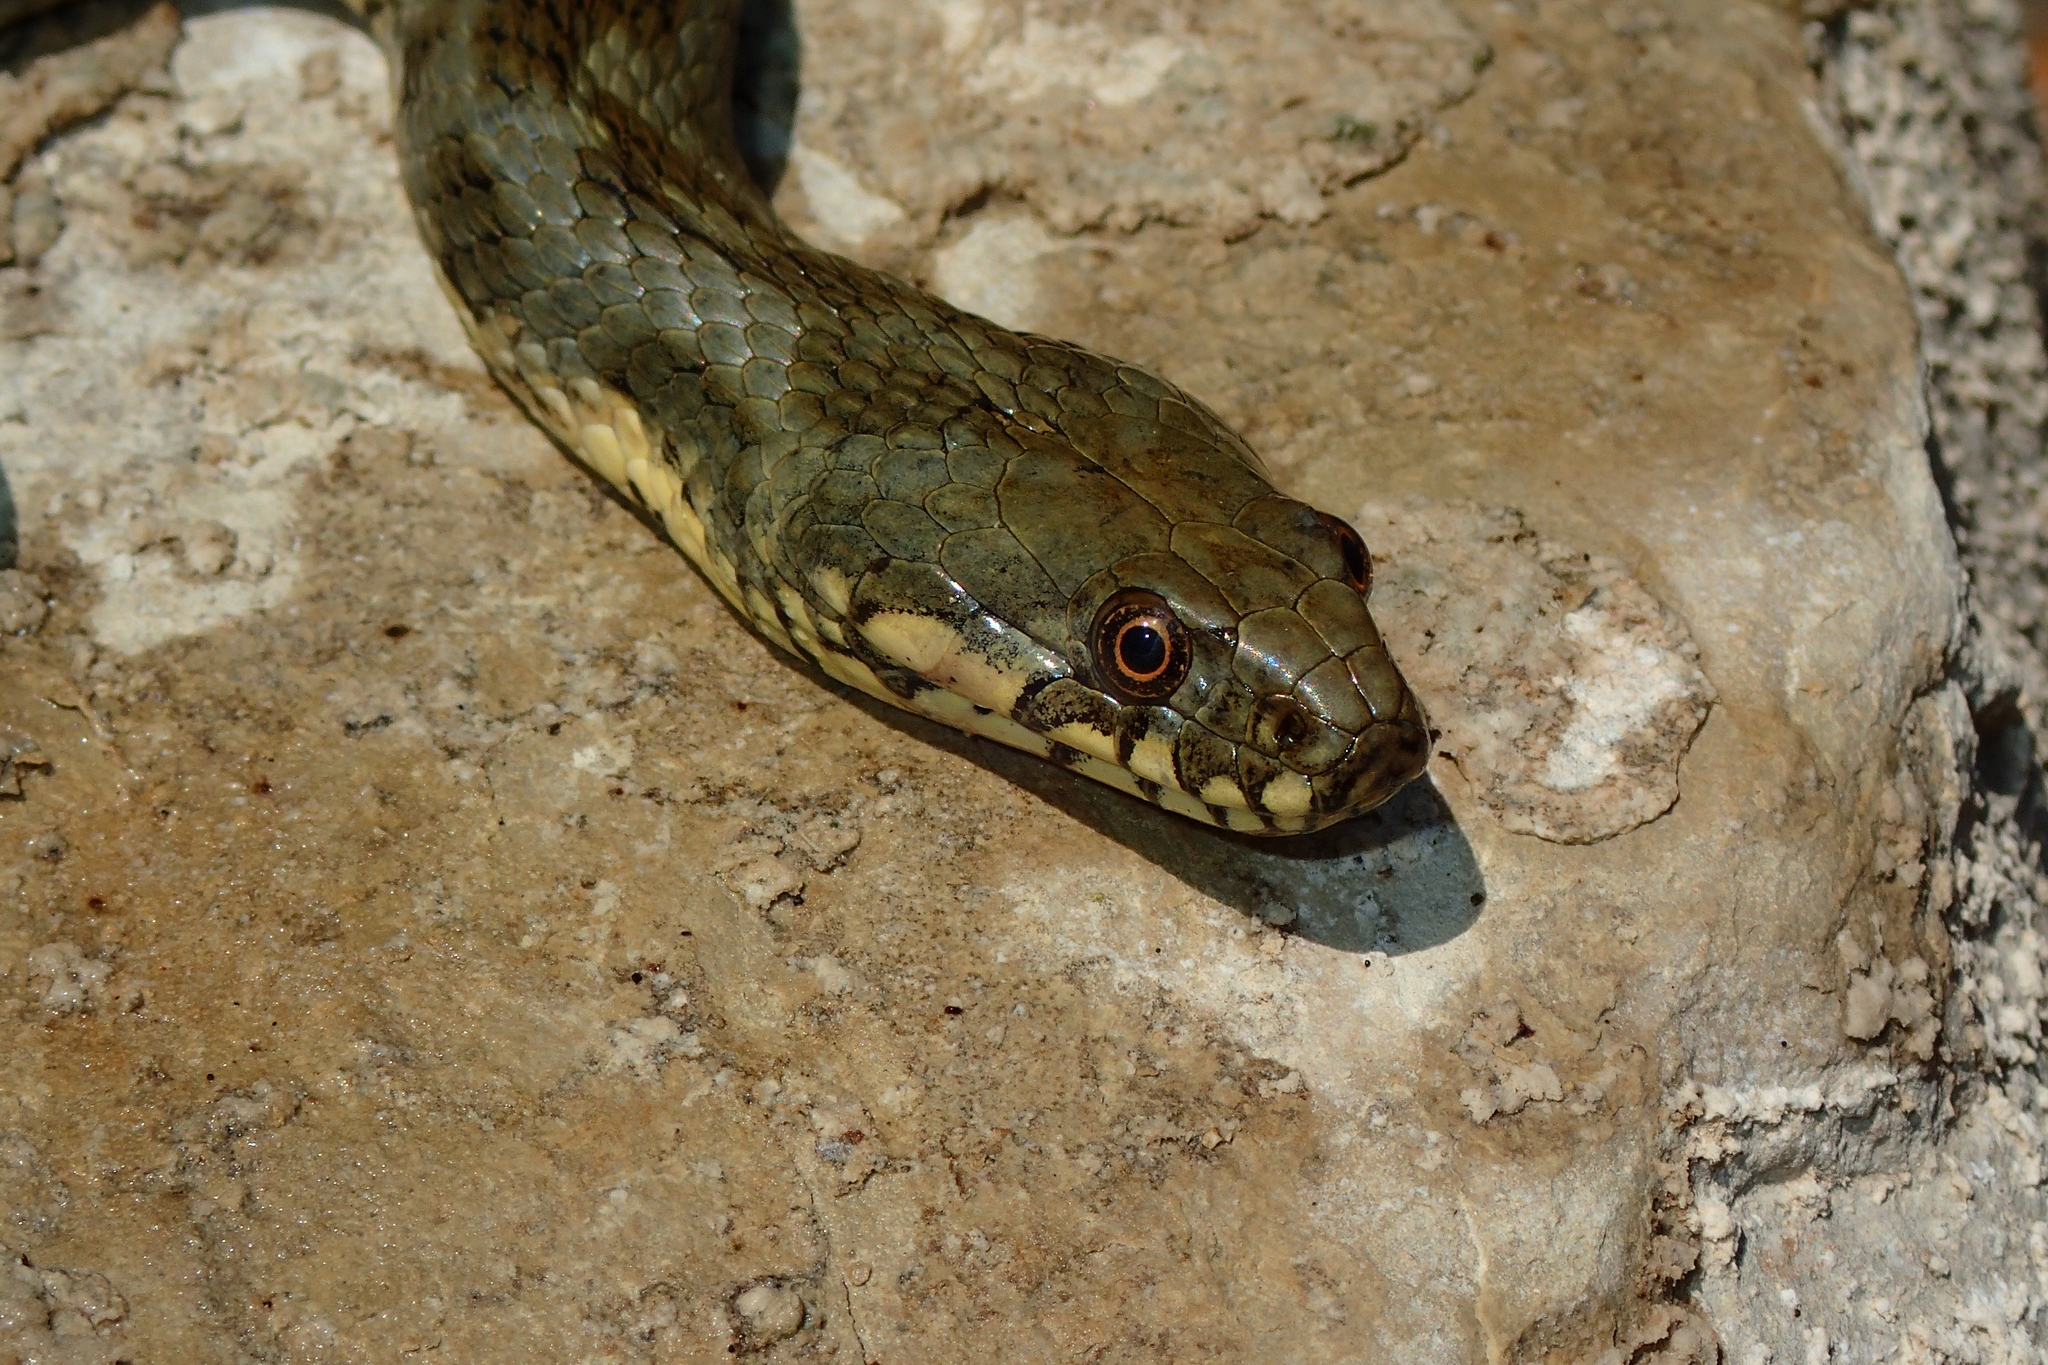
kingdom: Animalia
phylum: Chordata
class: Squamata
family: Colubridae
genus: Natrix
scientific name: Natrix maura
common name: Viperine water snake
